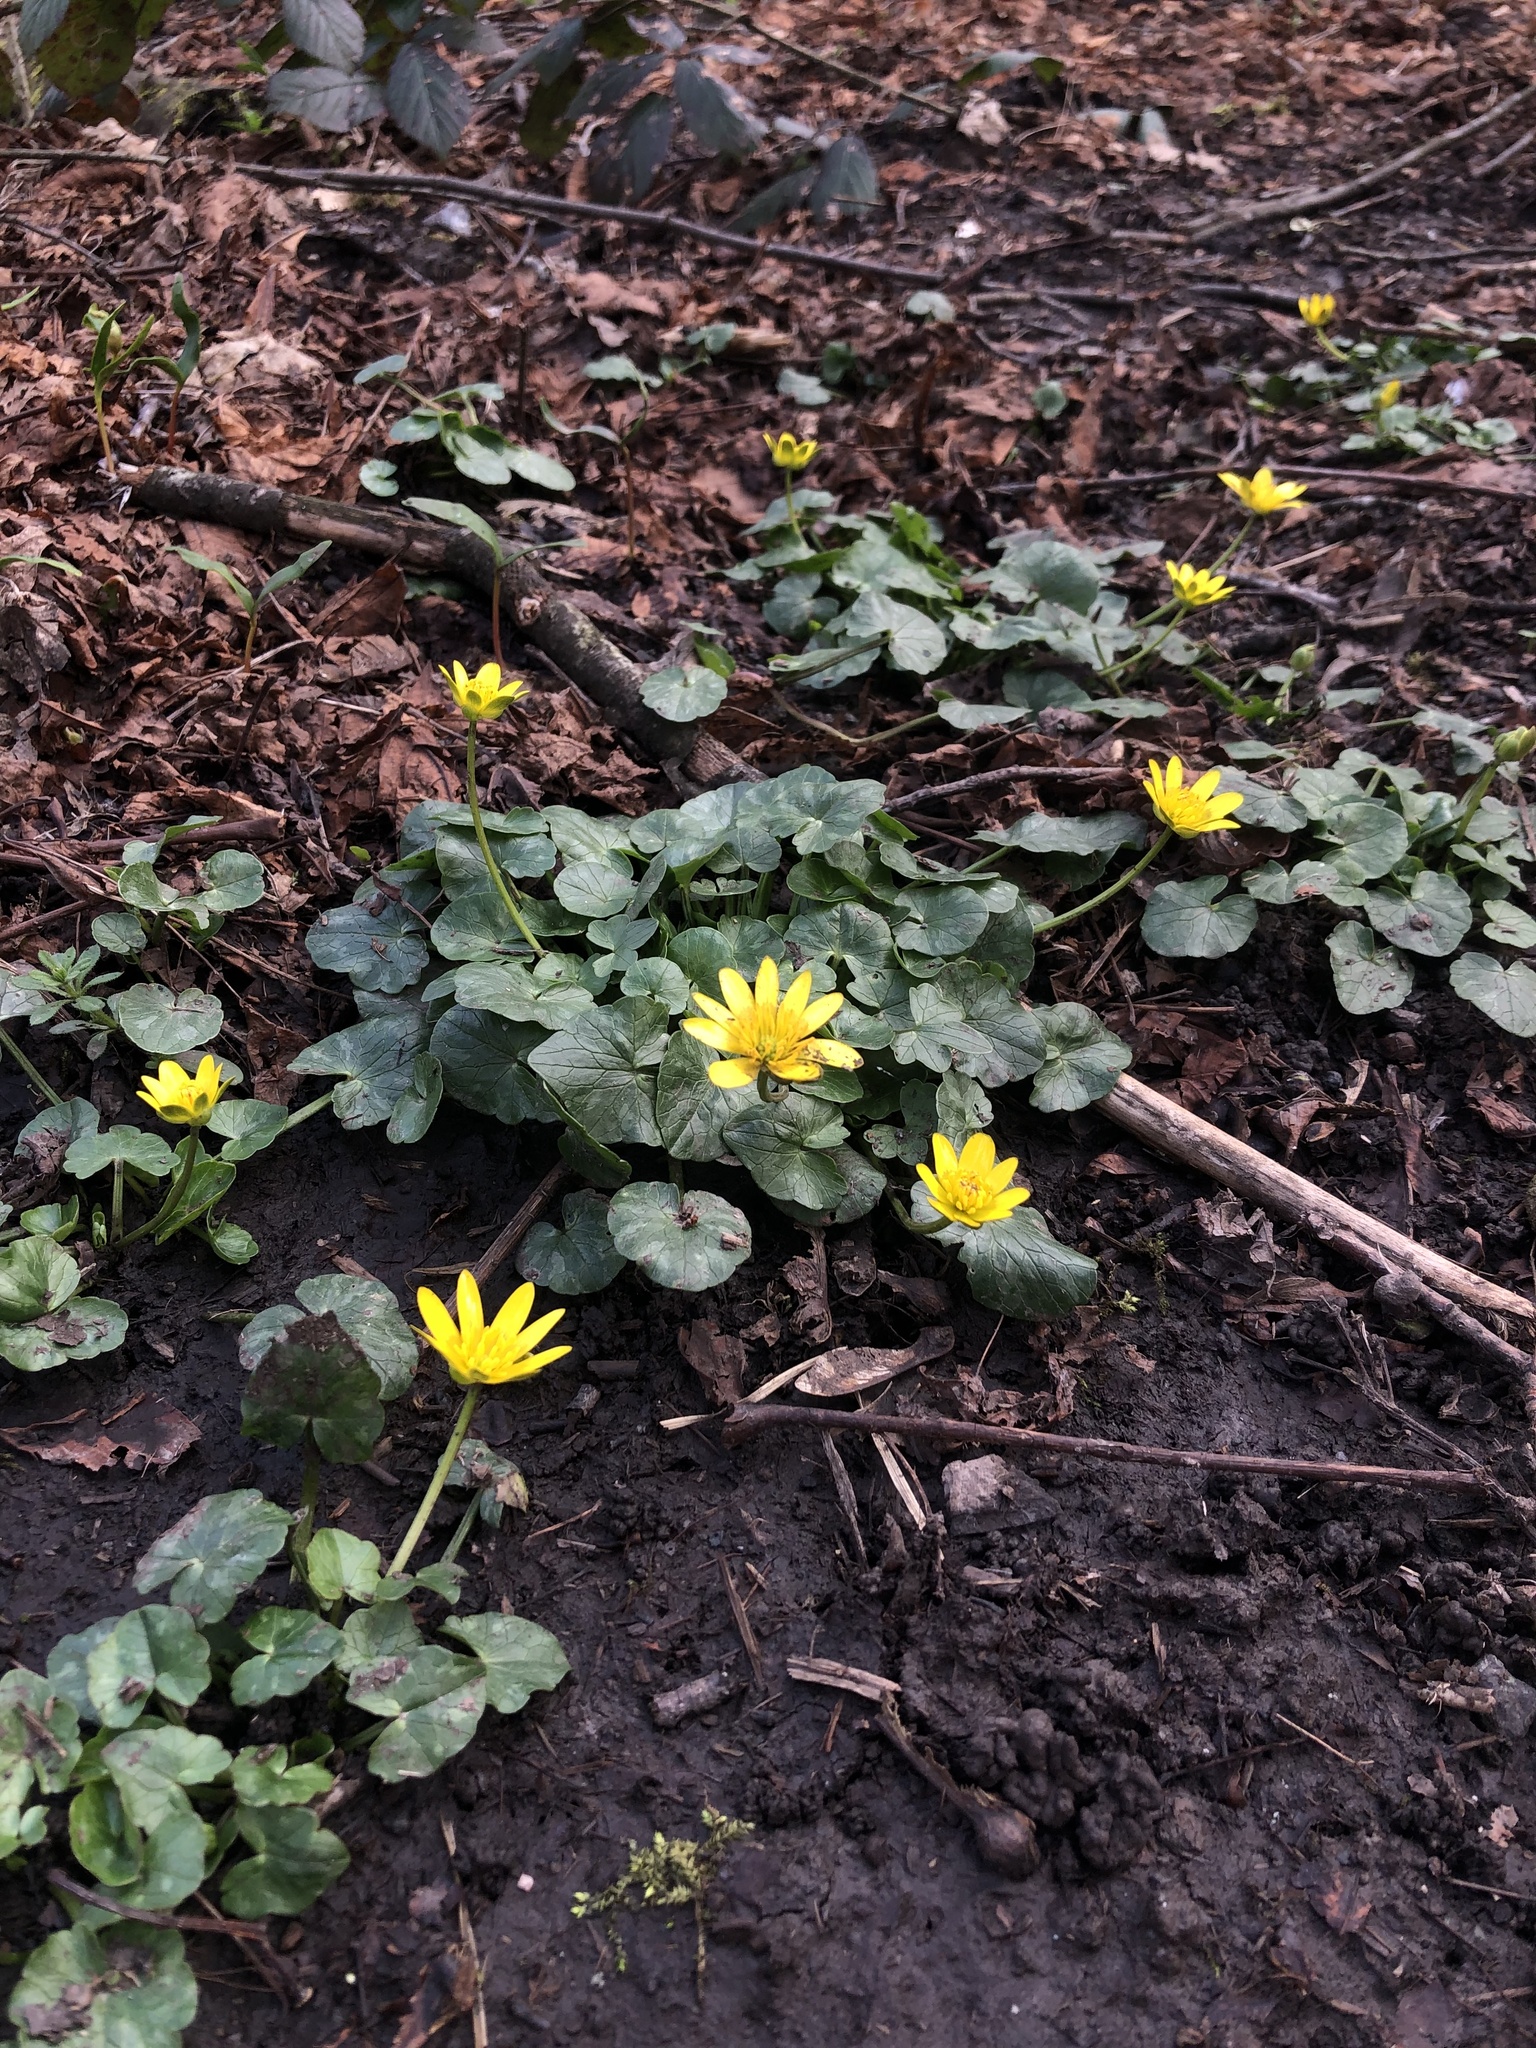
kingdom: Plantae
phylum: Tracheophyta
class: Magnoliopsida
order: Ranunculales
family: Ranunculaceae
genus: Ficaria
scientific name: Ficaria verna
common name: Lesser celandine
